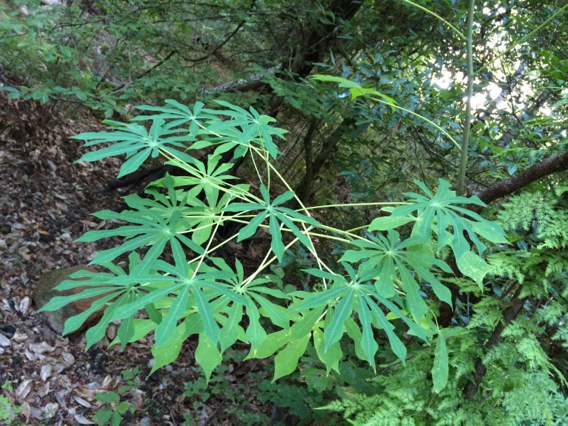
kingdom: Plantae
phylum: Tracheophyta
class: Magnoliopsida
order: Malpighiales
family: Euphorbiaceae
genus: Manihot
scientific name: Manihot grahamii
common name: Graham's manihot
